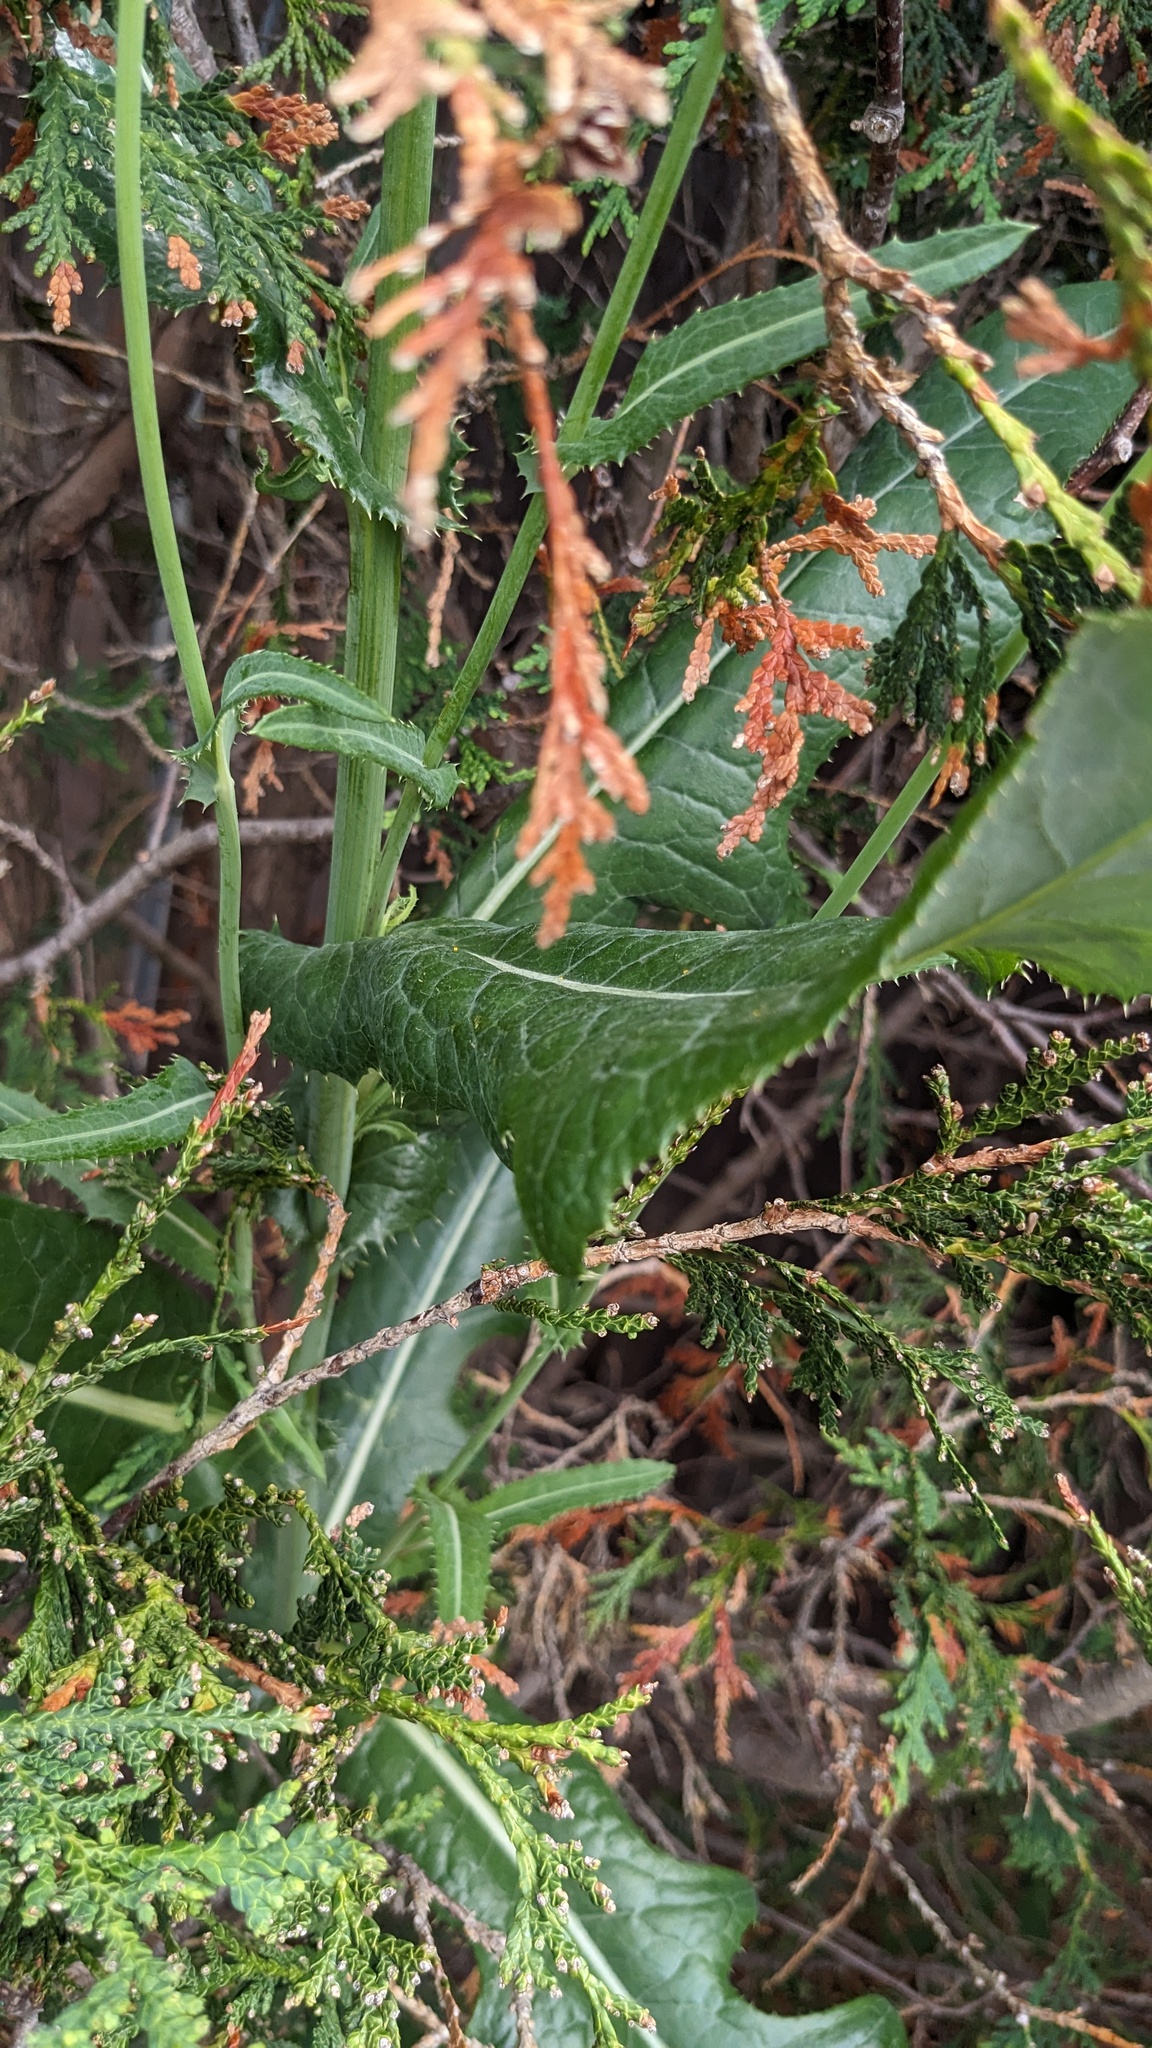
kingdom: Plantae
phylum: Tracheophyta
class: Magnoliopsida
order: Asterales
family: Asteraceae
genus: Sonchus
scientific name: Sonchus arvensis
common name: Perennial sow-thistle
